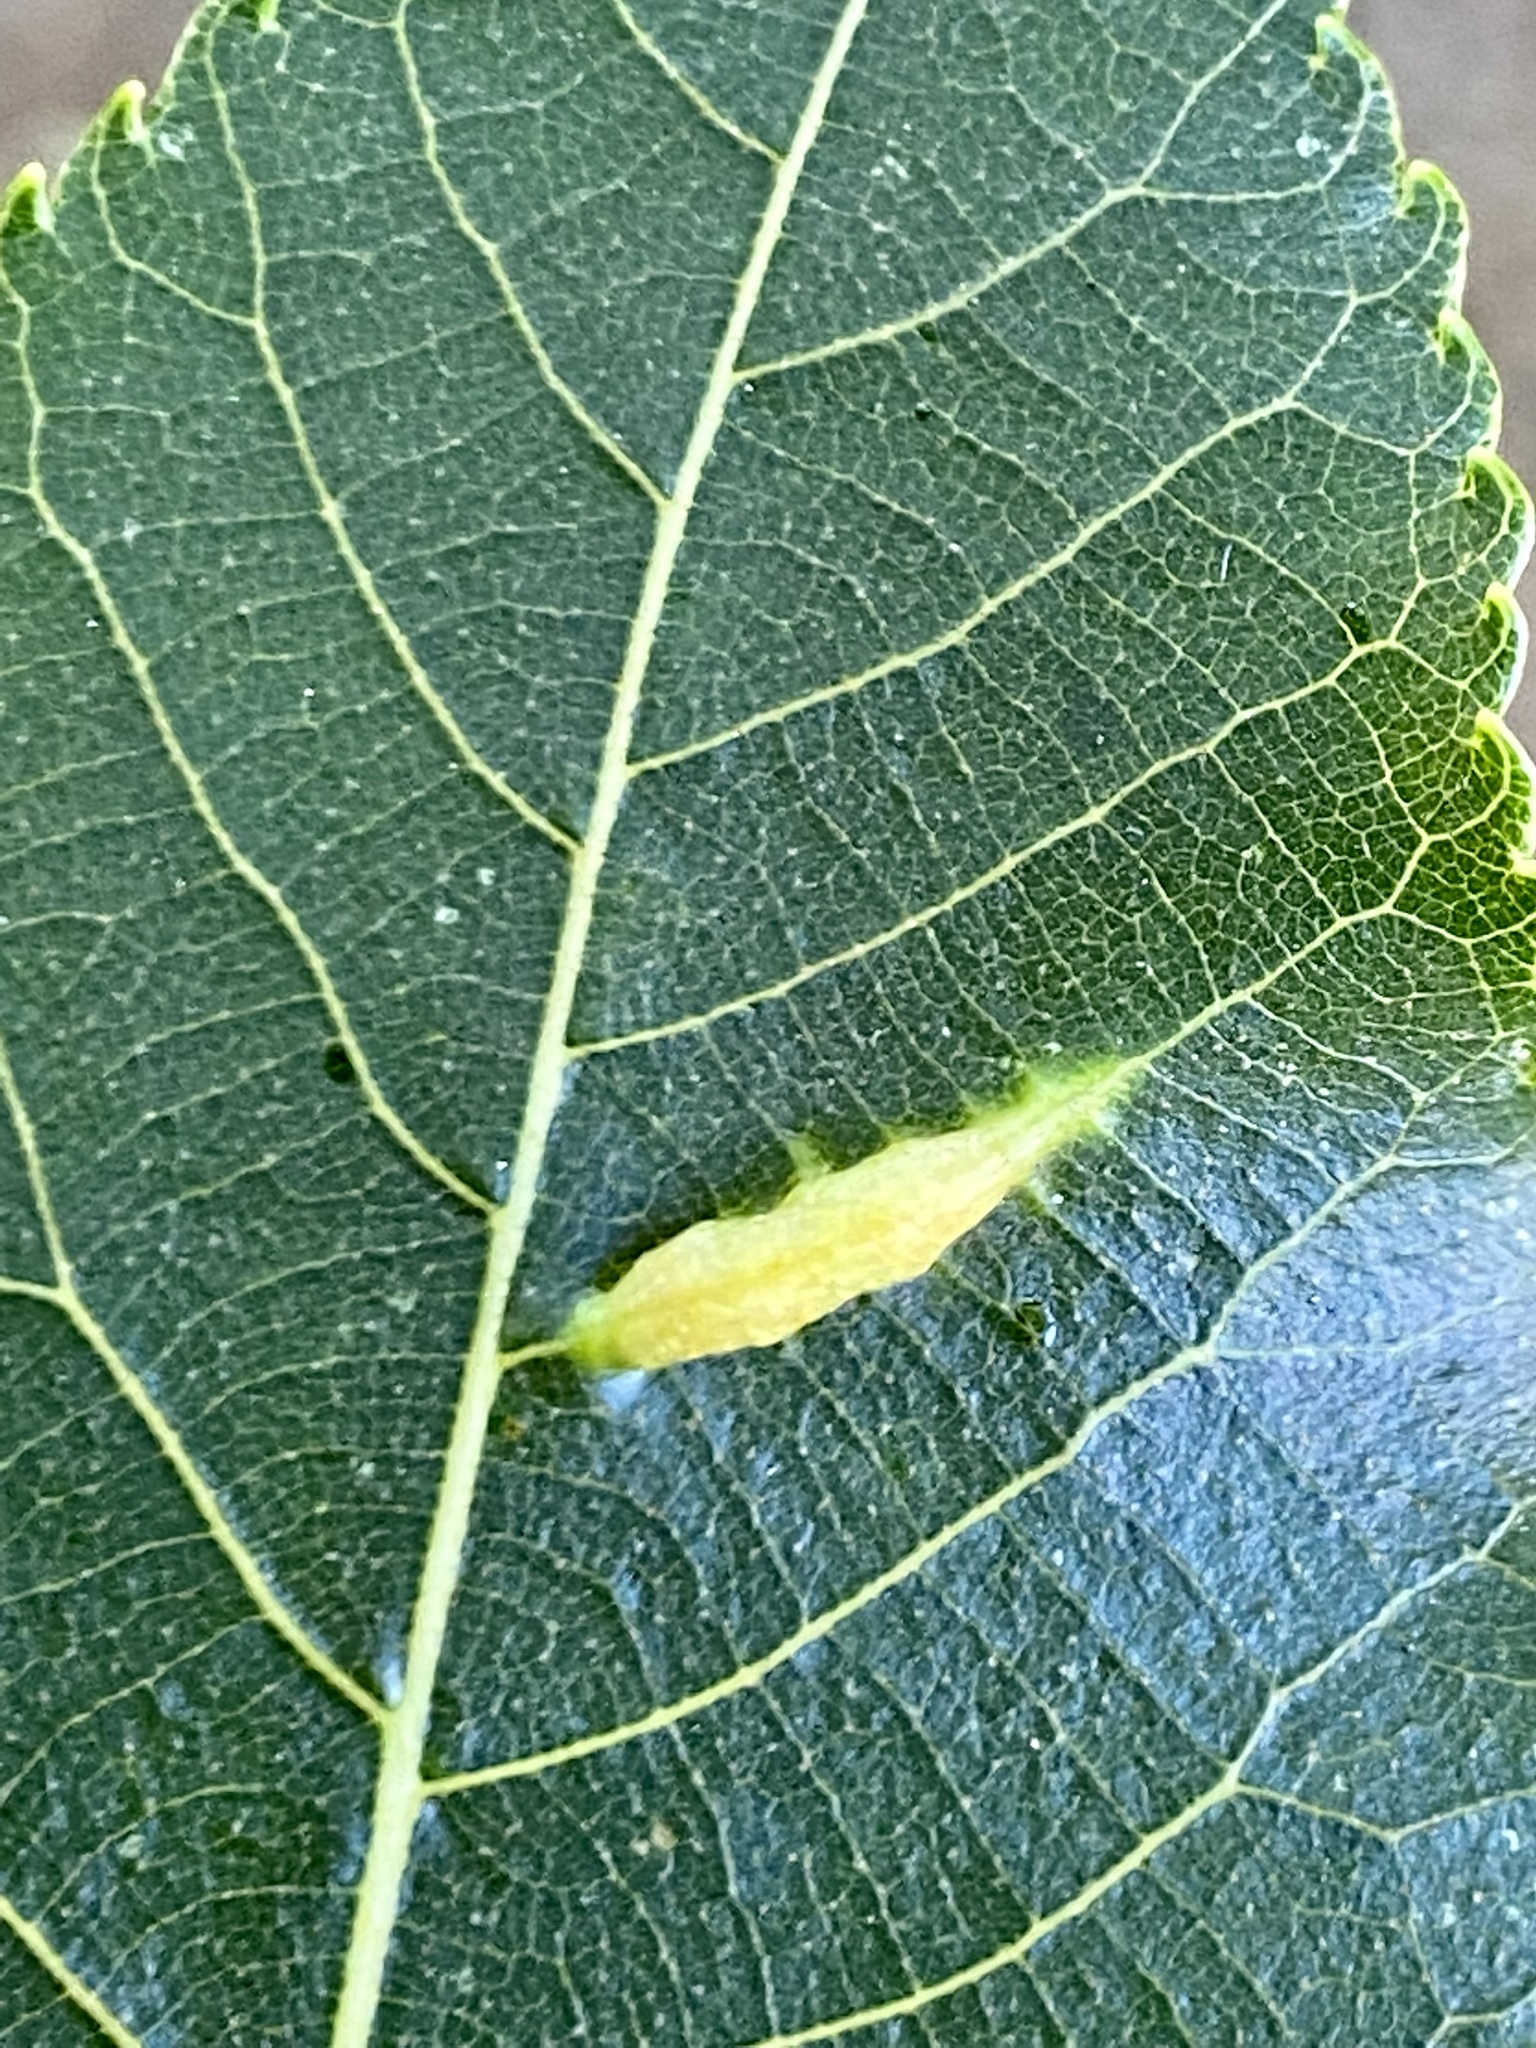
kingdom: Animalia
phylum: Arthropoda
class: Insecta
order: Hemiptera
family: Phylloxeridae
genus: Phylloxera
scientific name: Phylloxera caryaevenae
